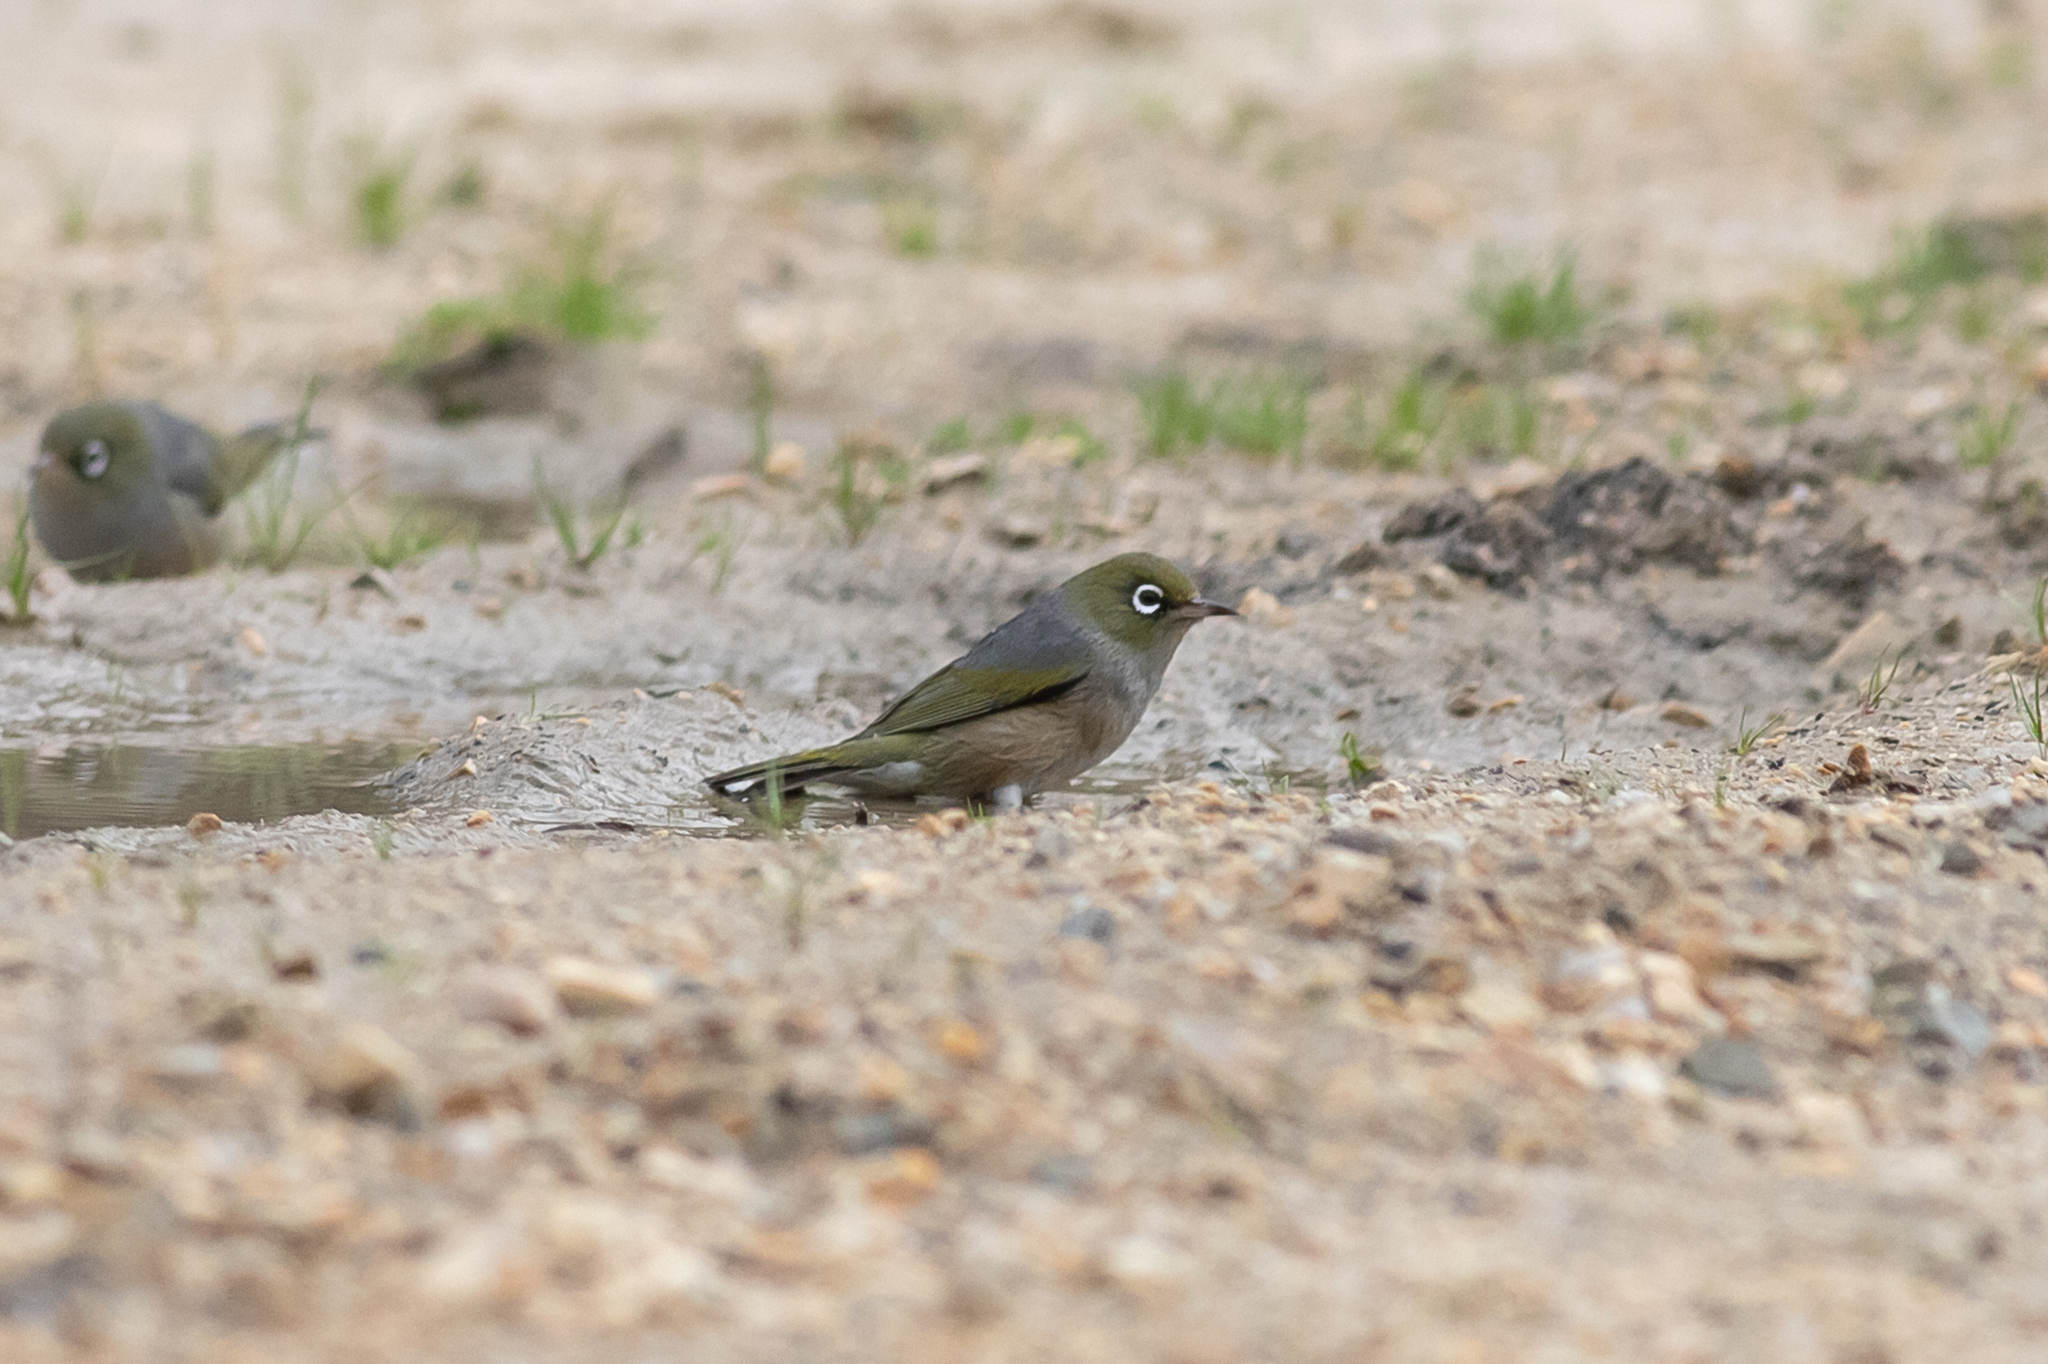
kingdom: Animalia
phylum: Chordata
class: Aves
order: Passeriformes
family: Zosteropidae
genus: Zosterops
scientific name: Zosterops lateralis
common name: Silvereye
